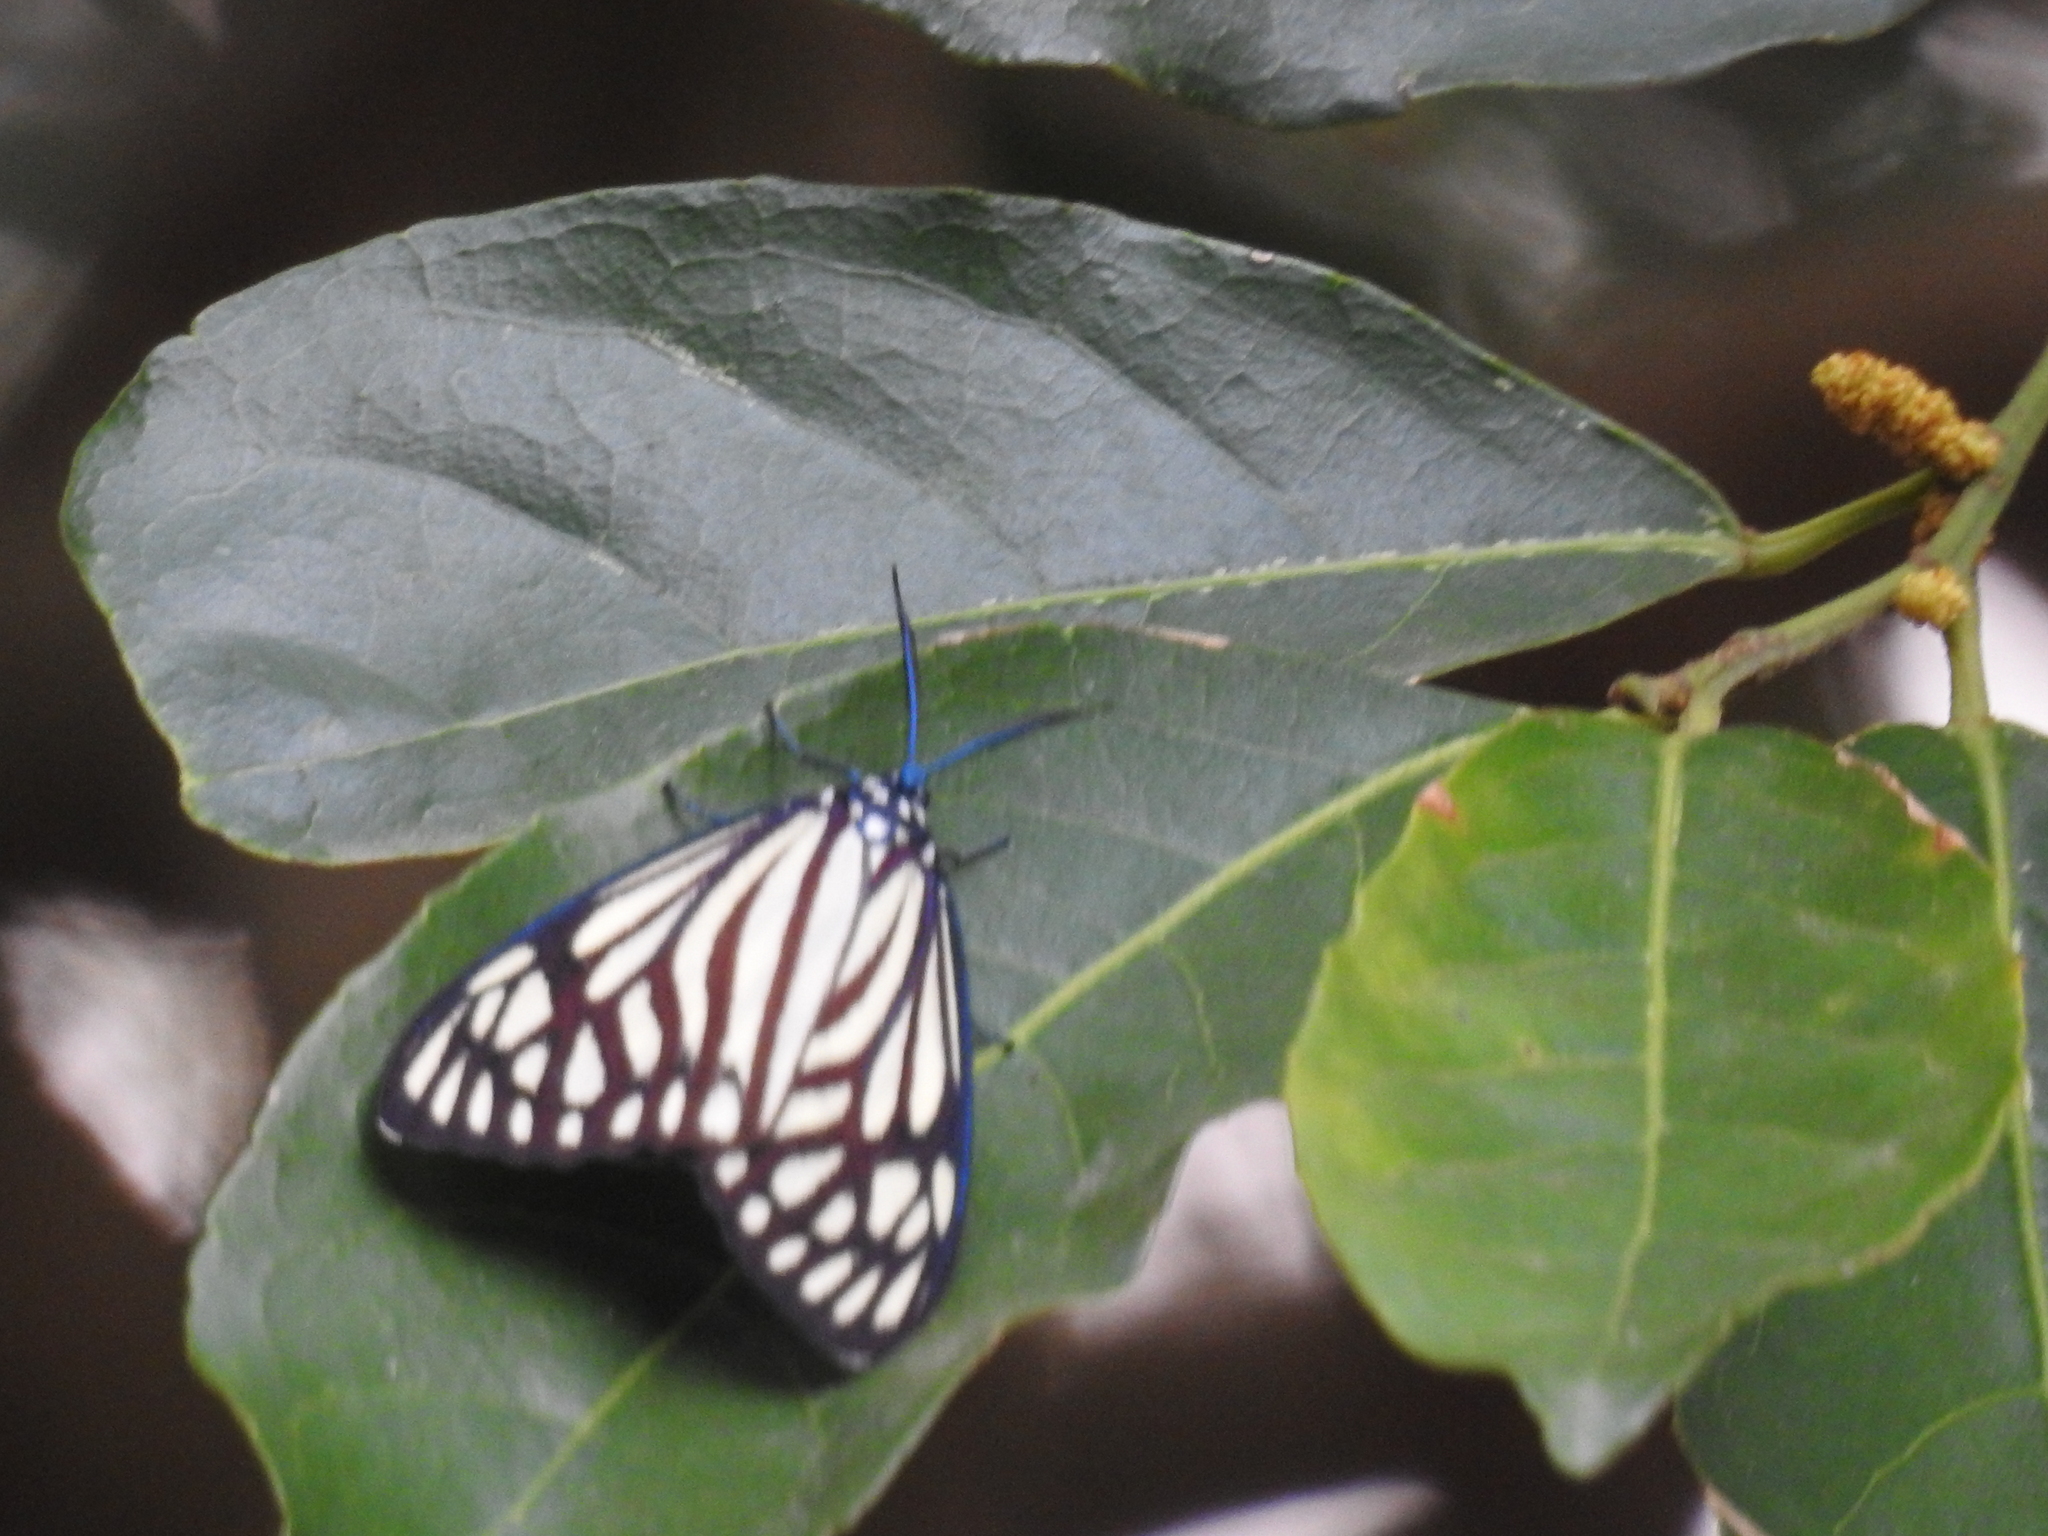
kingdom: Animalia
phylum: Arthropoda
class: Insecta
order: Lepidoptera
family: Zygaenidae
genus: Cyclosia
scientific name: Cyclosia papilionaris
